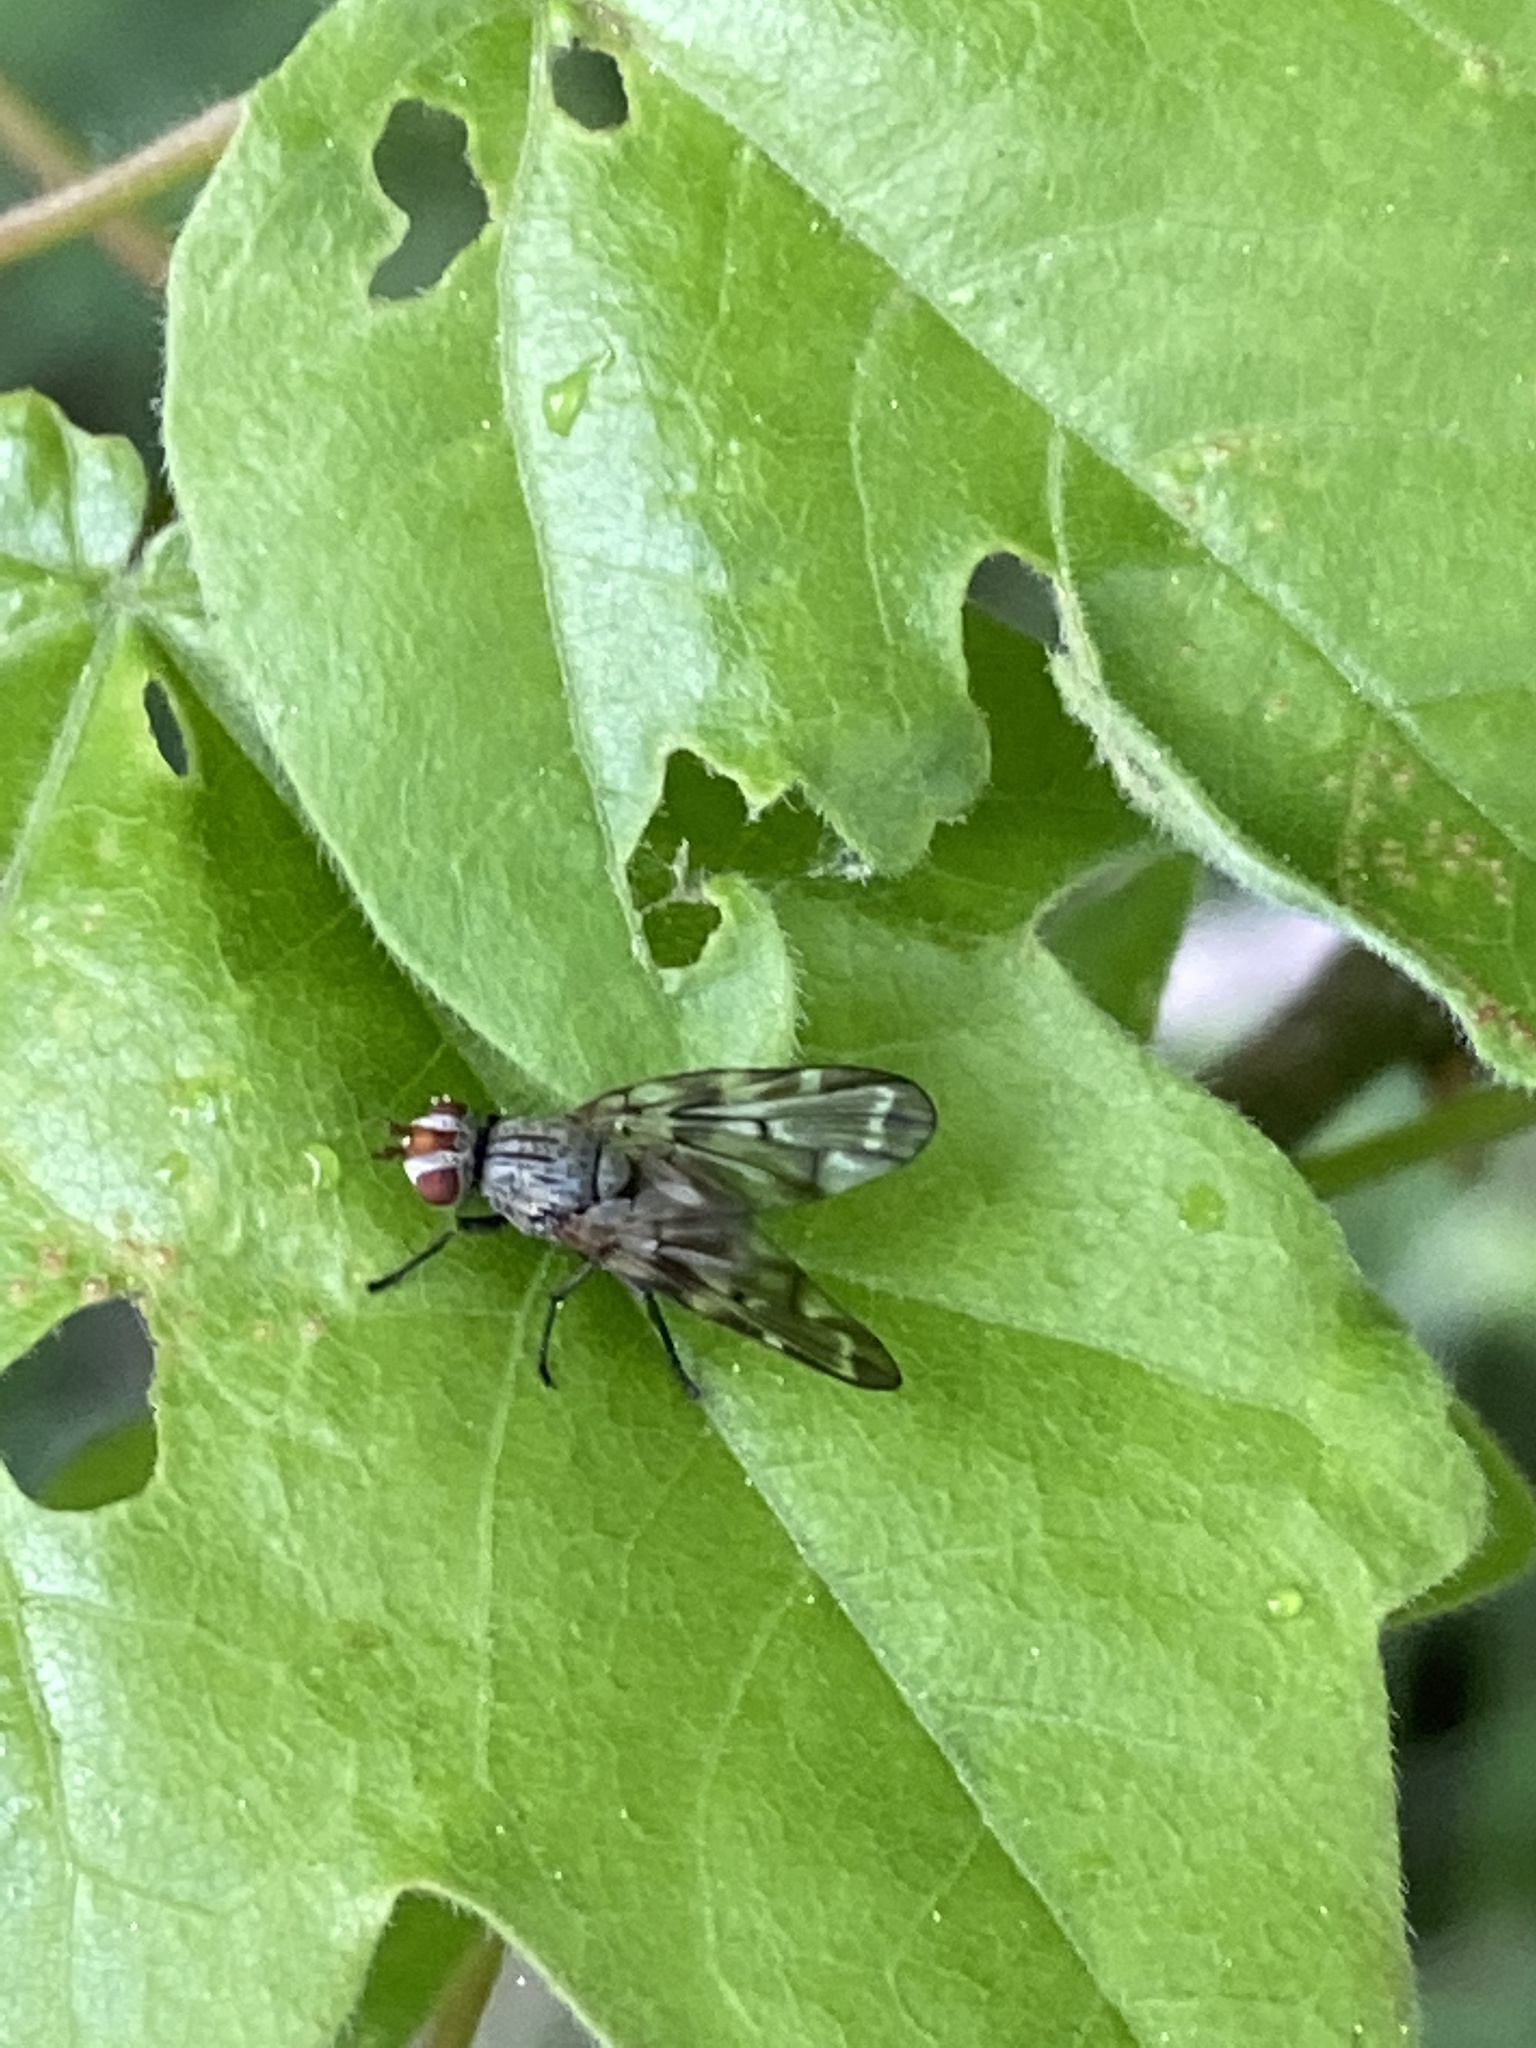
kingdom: Animalia
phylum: Arthropoda
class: Insecta
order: Diptera
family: Ulidiidae
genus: Otites
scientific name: Otites guttata
